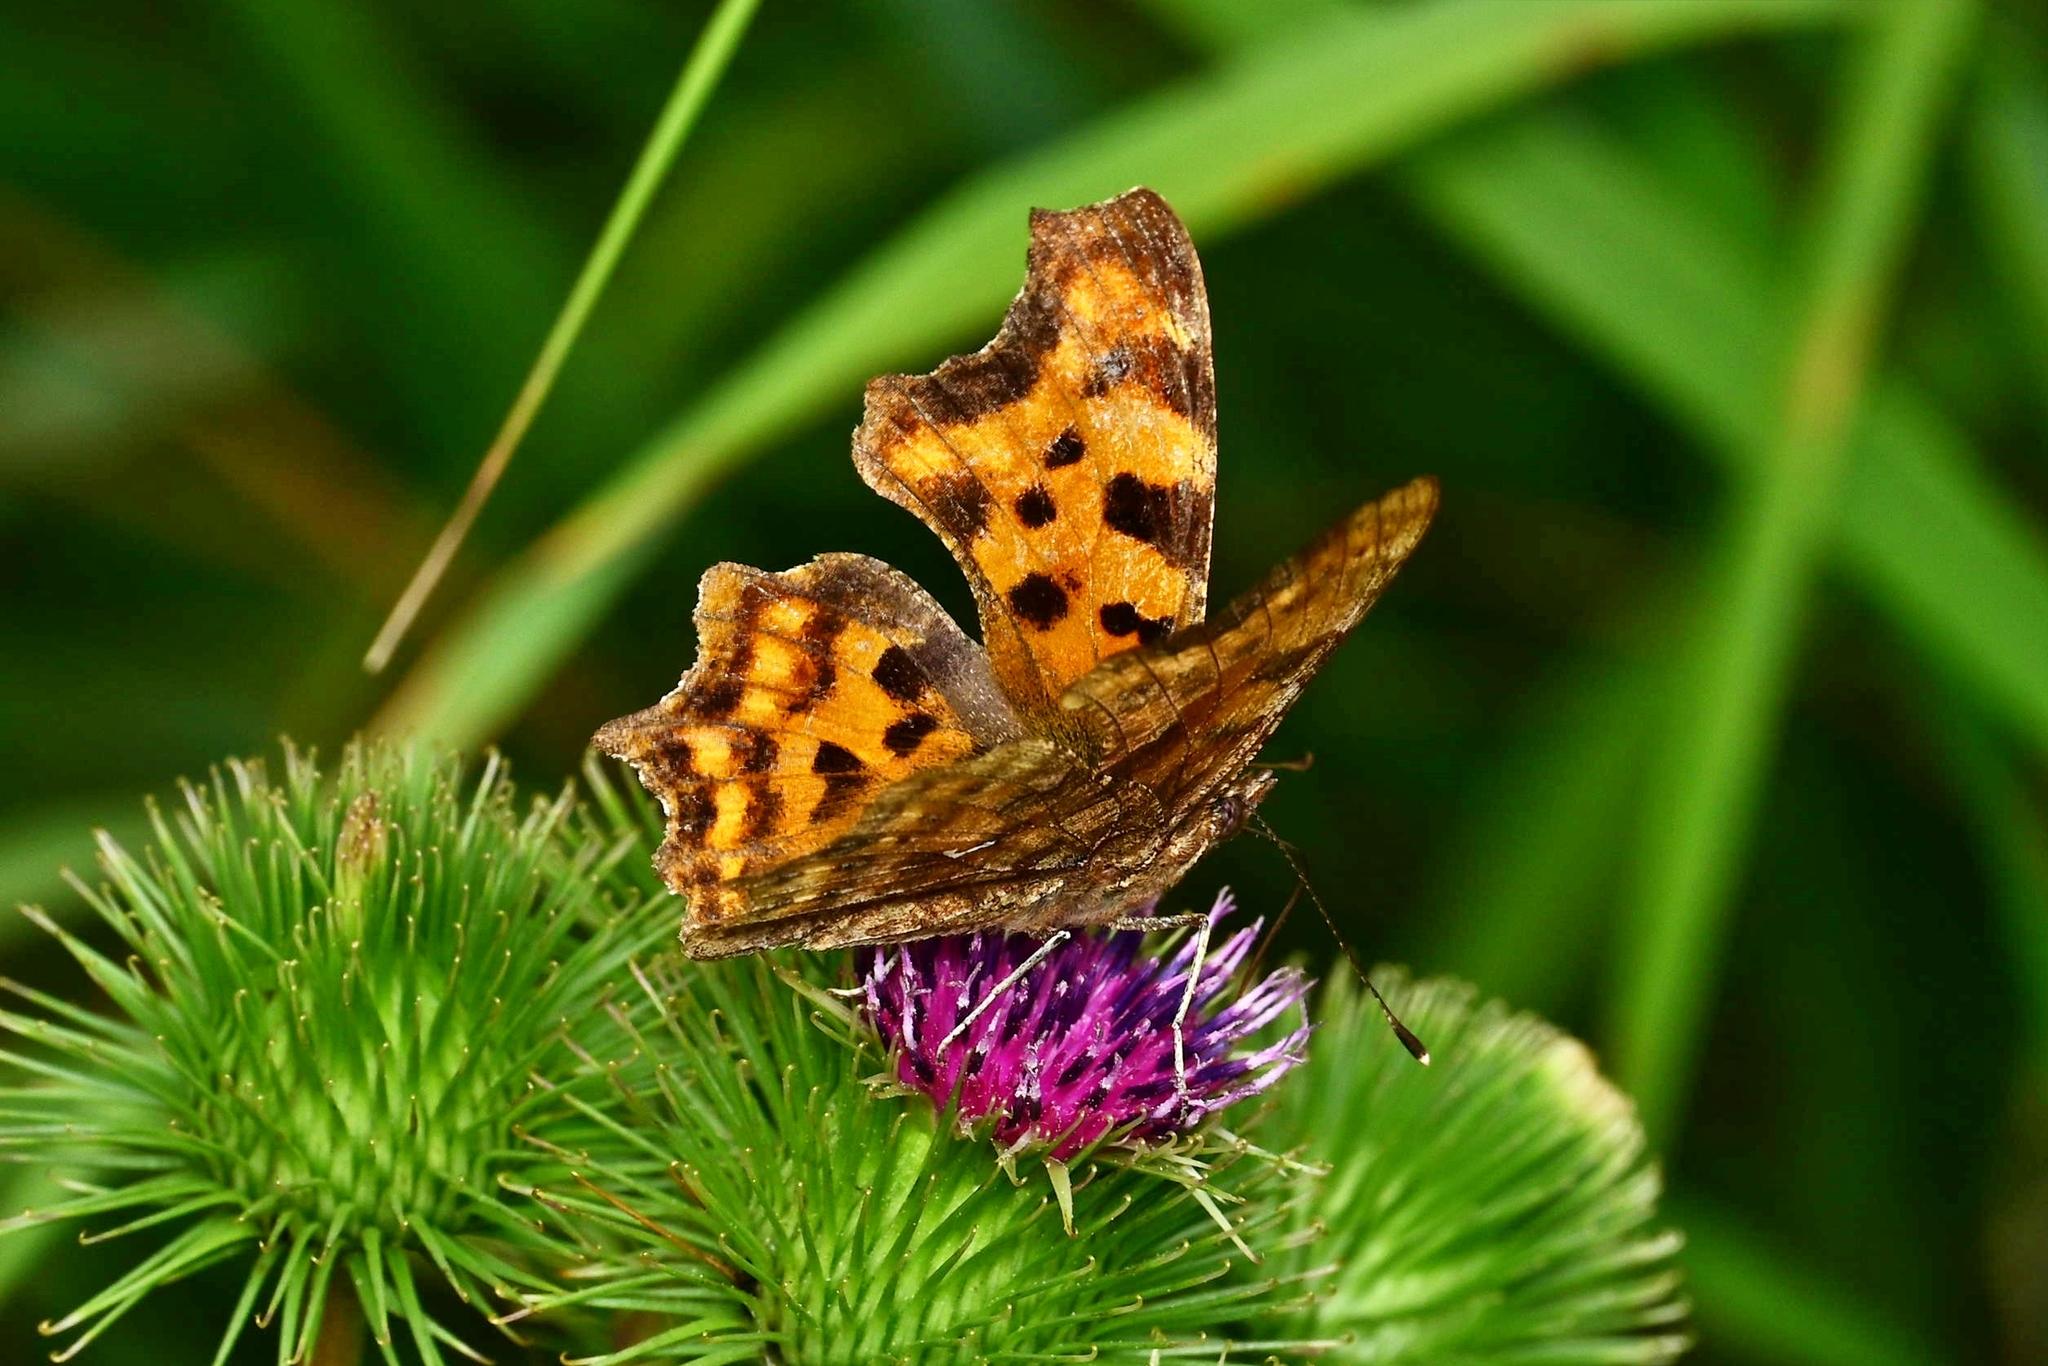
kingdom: Animalia
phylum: Arthropoda
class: Insecta
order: Lepidoptera
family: Nymphalidae
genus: Polygonia
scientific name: Polygonia c-album
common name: Comma
